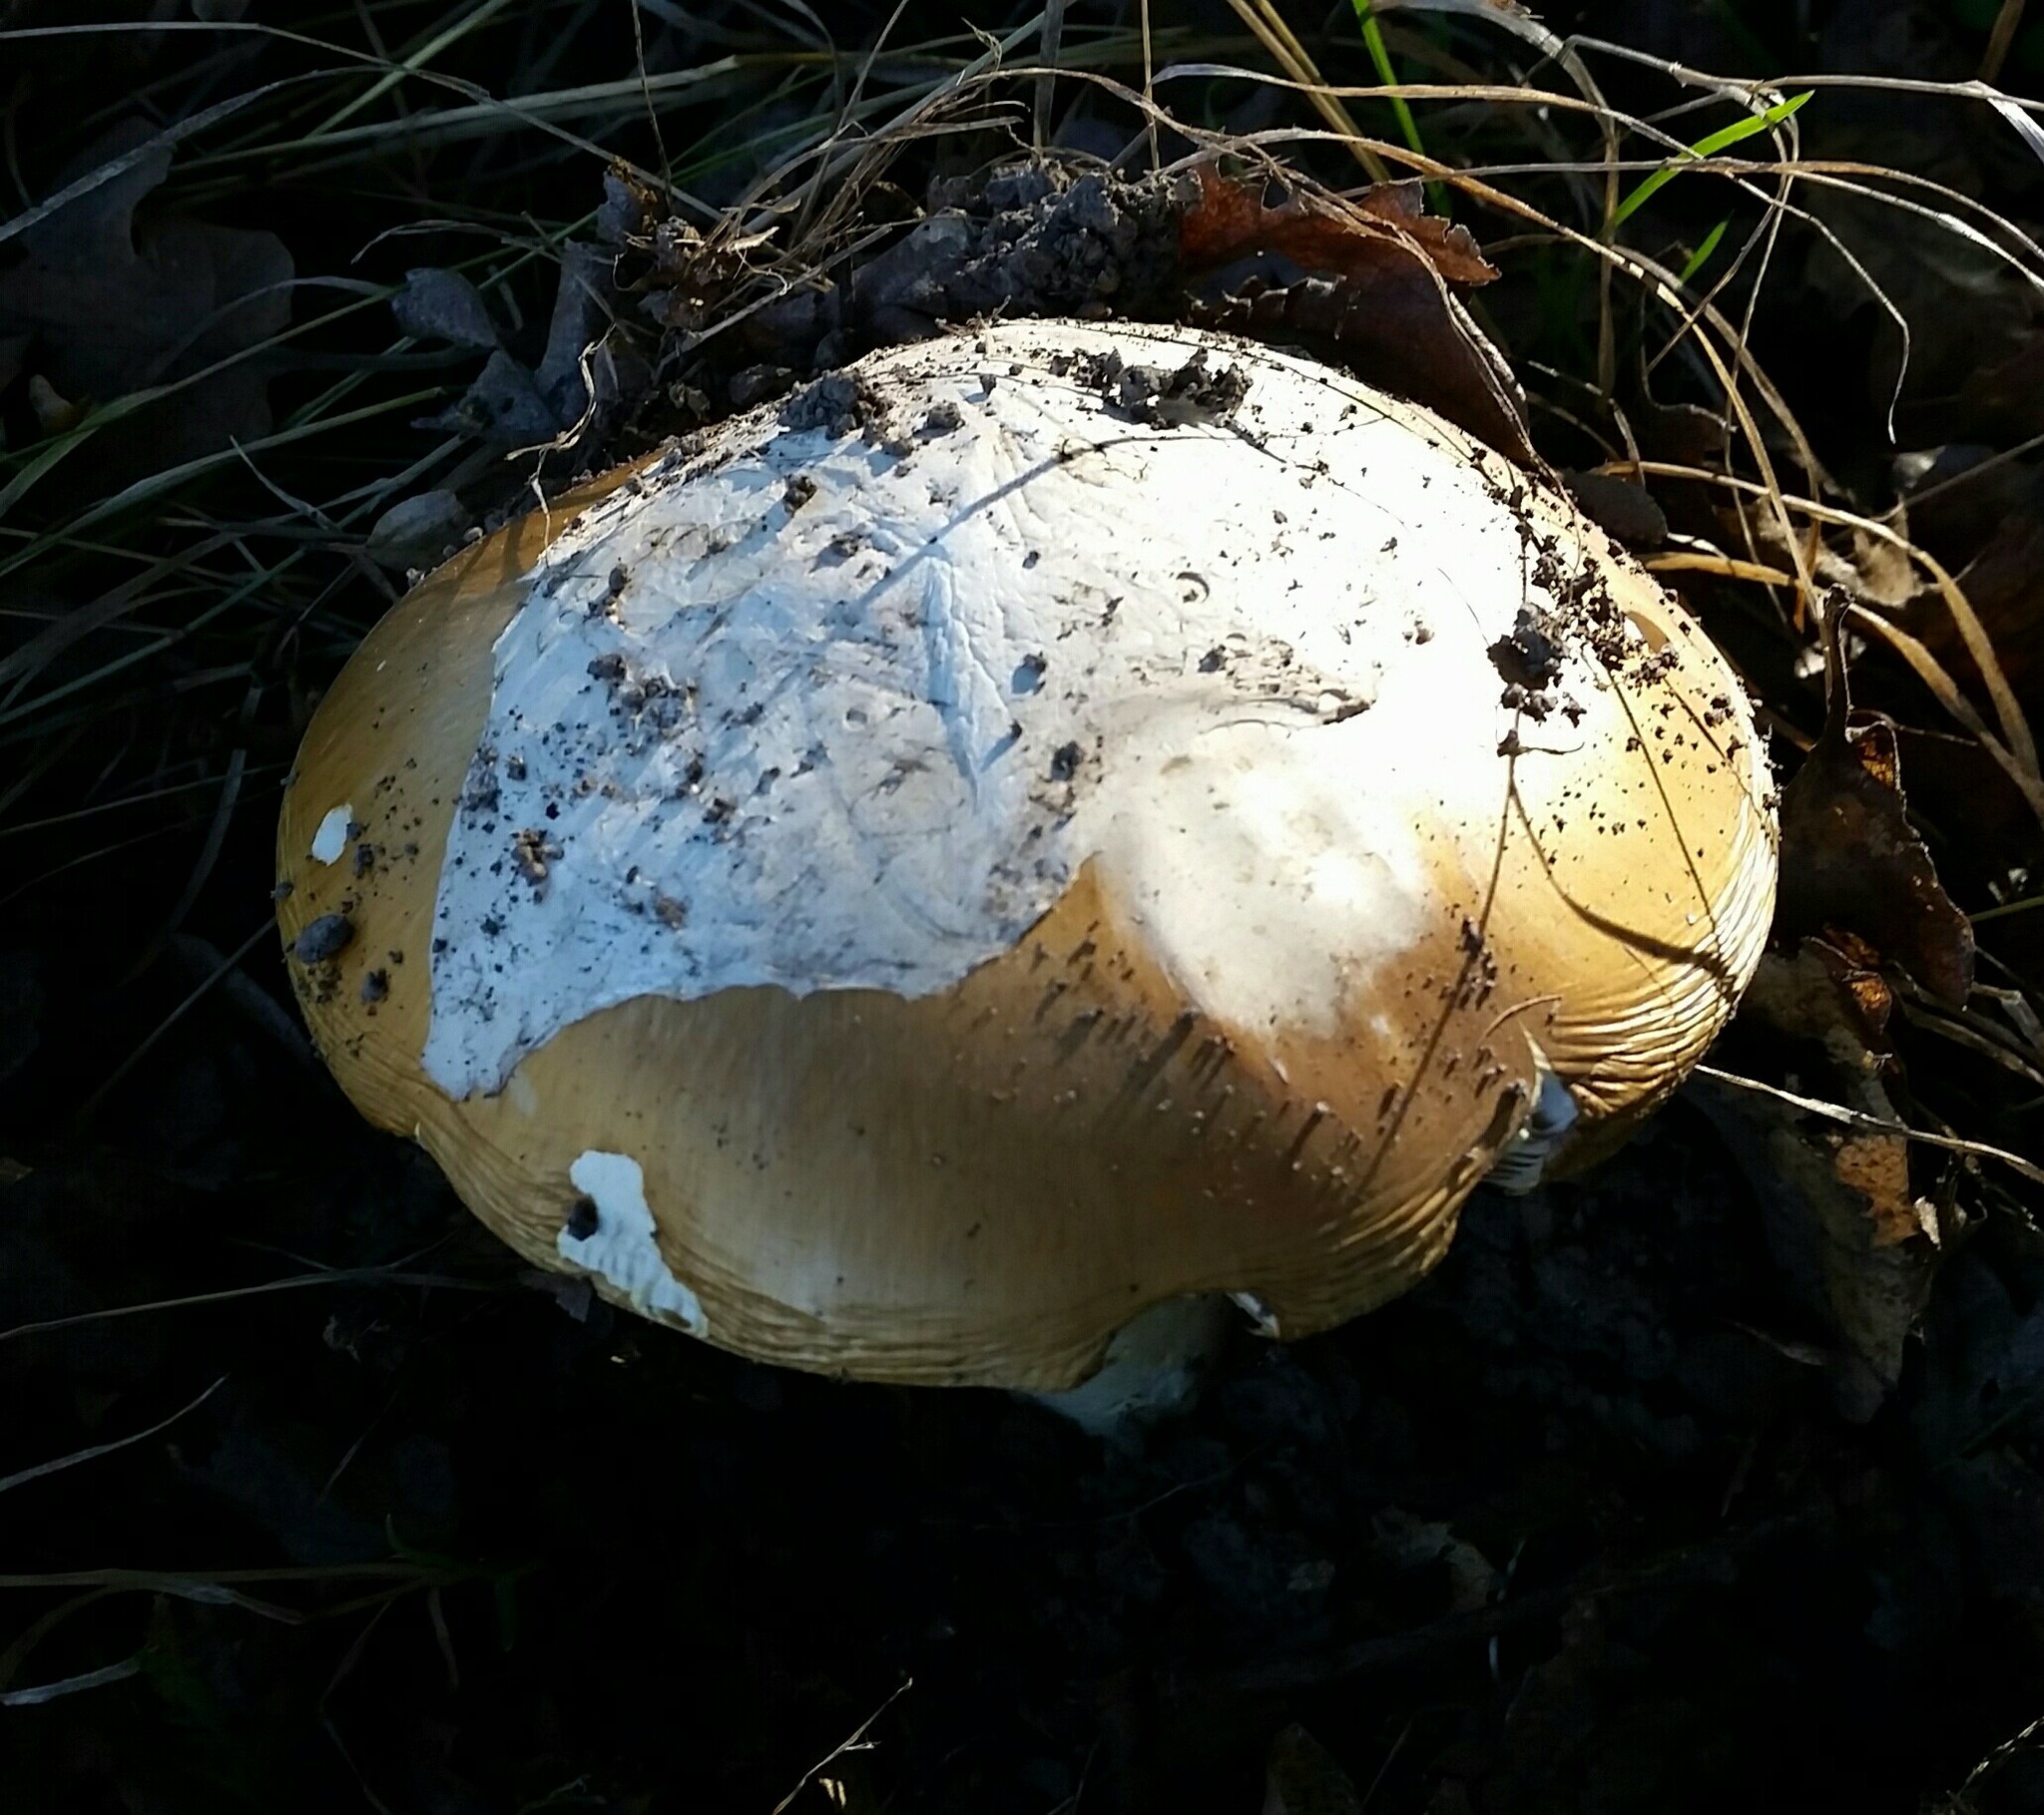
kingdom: Fungi
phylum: Basidiomycota
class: Agaricomycetes
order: Agaricales
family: Amanitaceae
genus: Amanita
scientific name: Amanita calyptroderma
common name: Coccora
